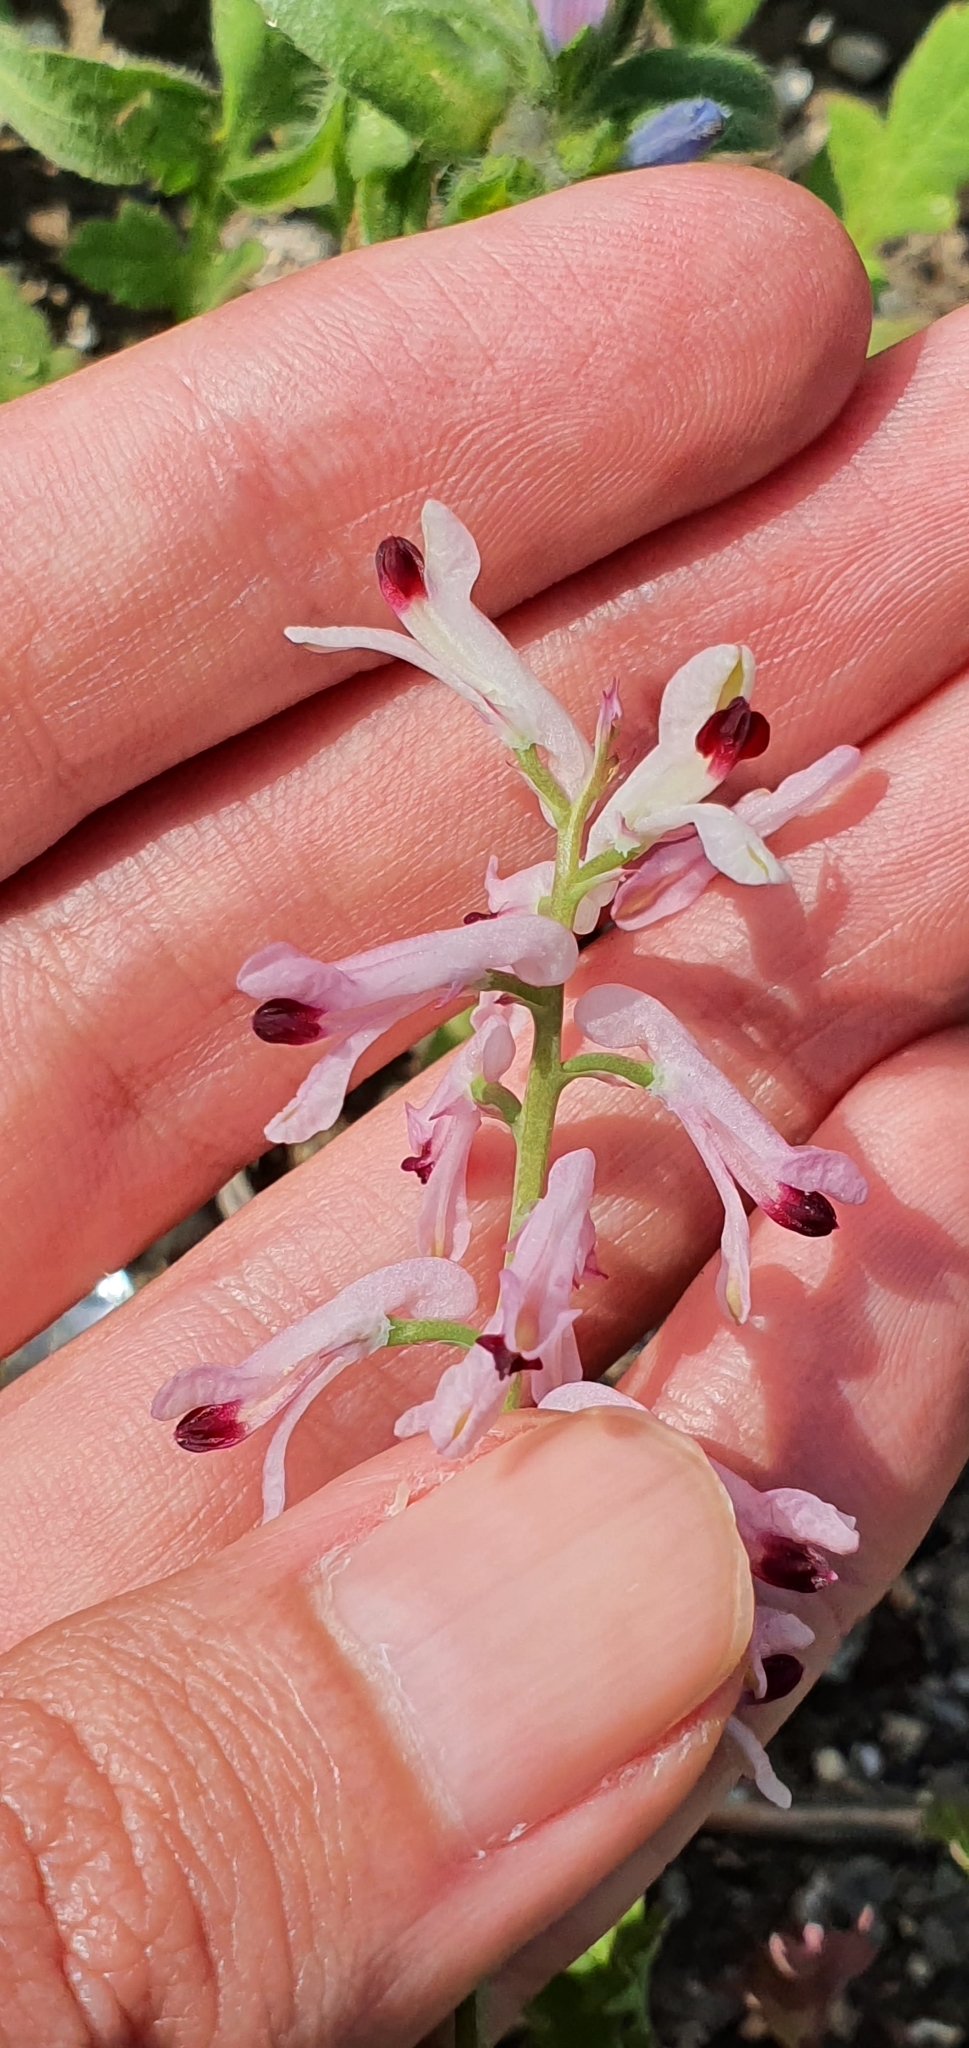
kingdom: Plantae
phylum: Tracheophyta
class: Magnoliopsida
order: Ranunculales
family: Papaveraceae
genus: Fumaria
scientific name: Fumaria atlantica
